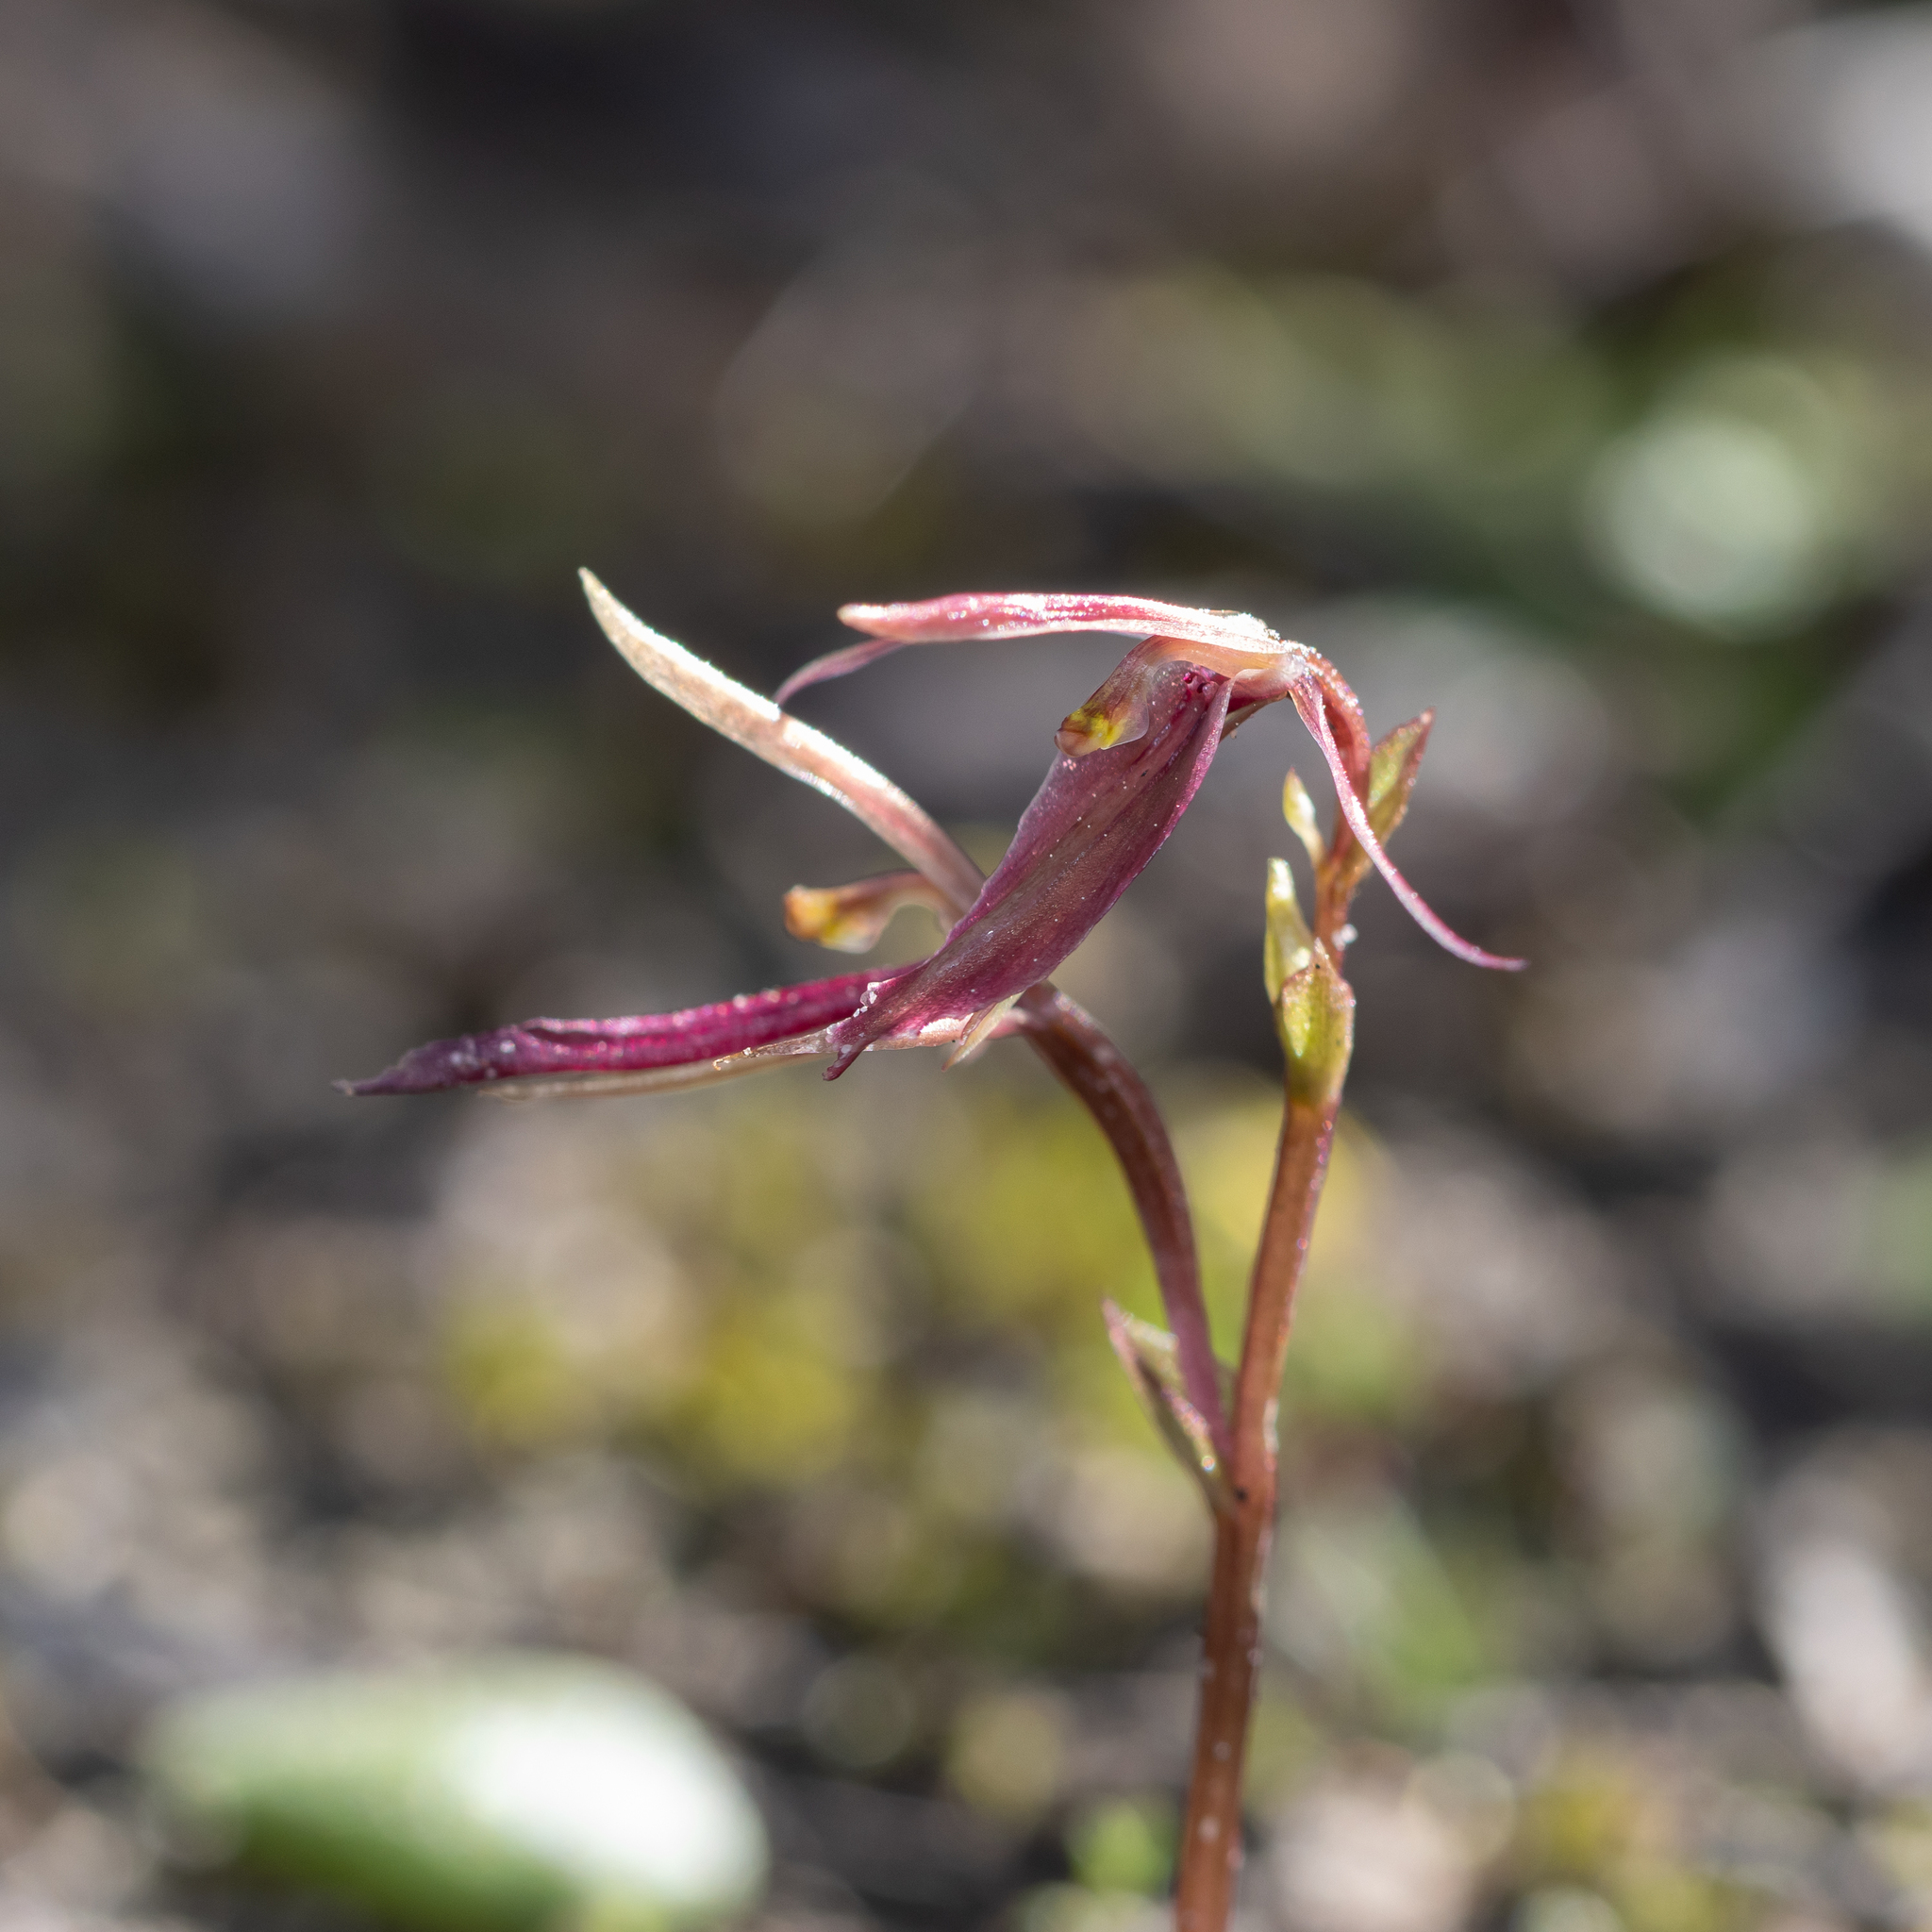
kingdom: Plantae
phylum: Tracheophyta
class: Liliopsida
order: Asparagales
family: Orchidaceae
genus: Cyrtostylis
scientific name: Cyrtostylis robusta
